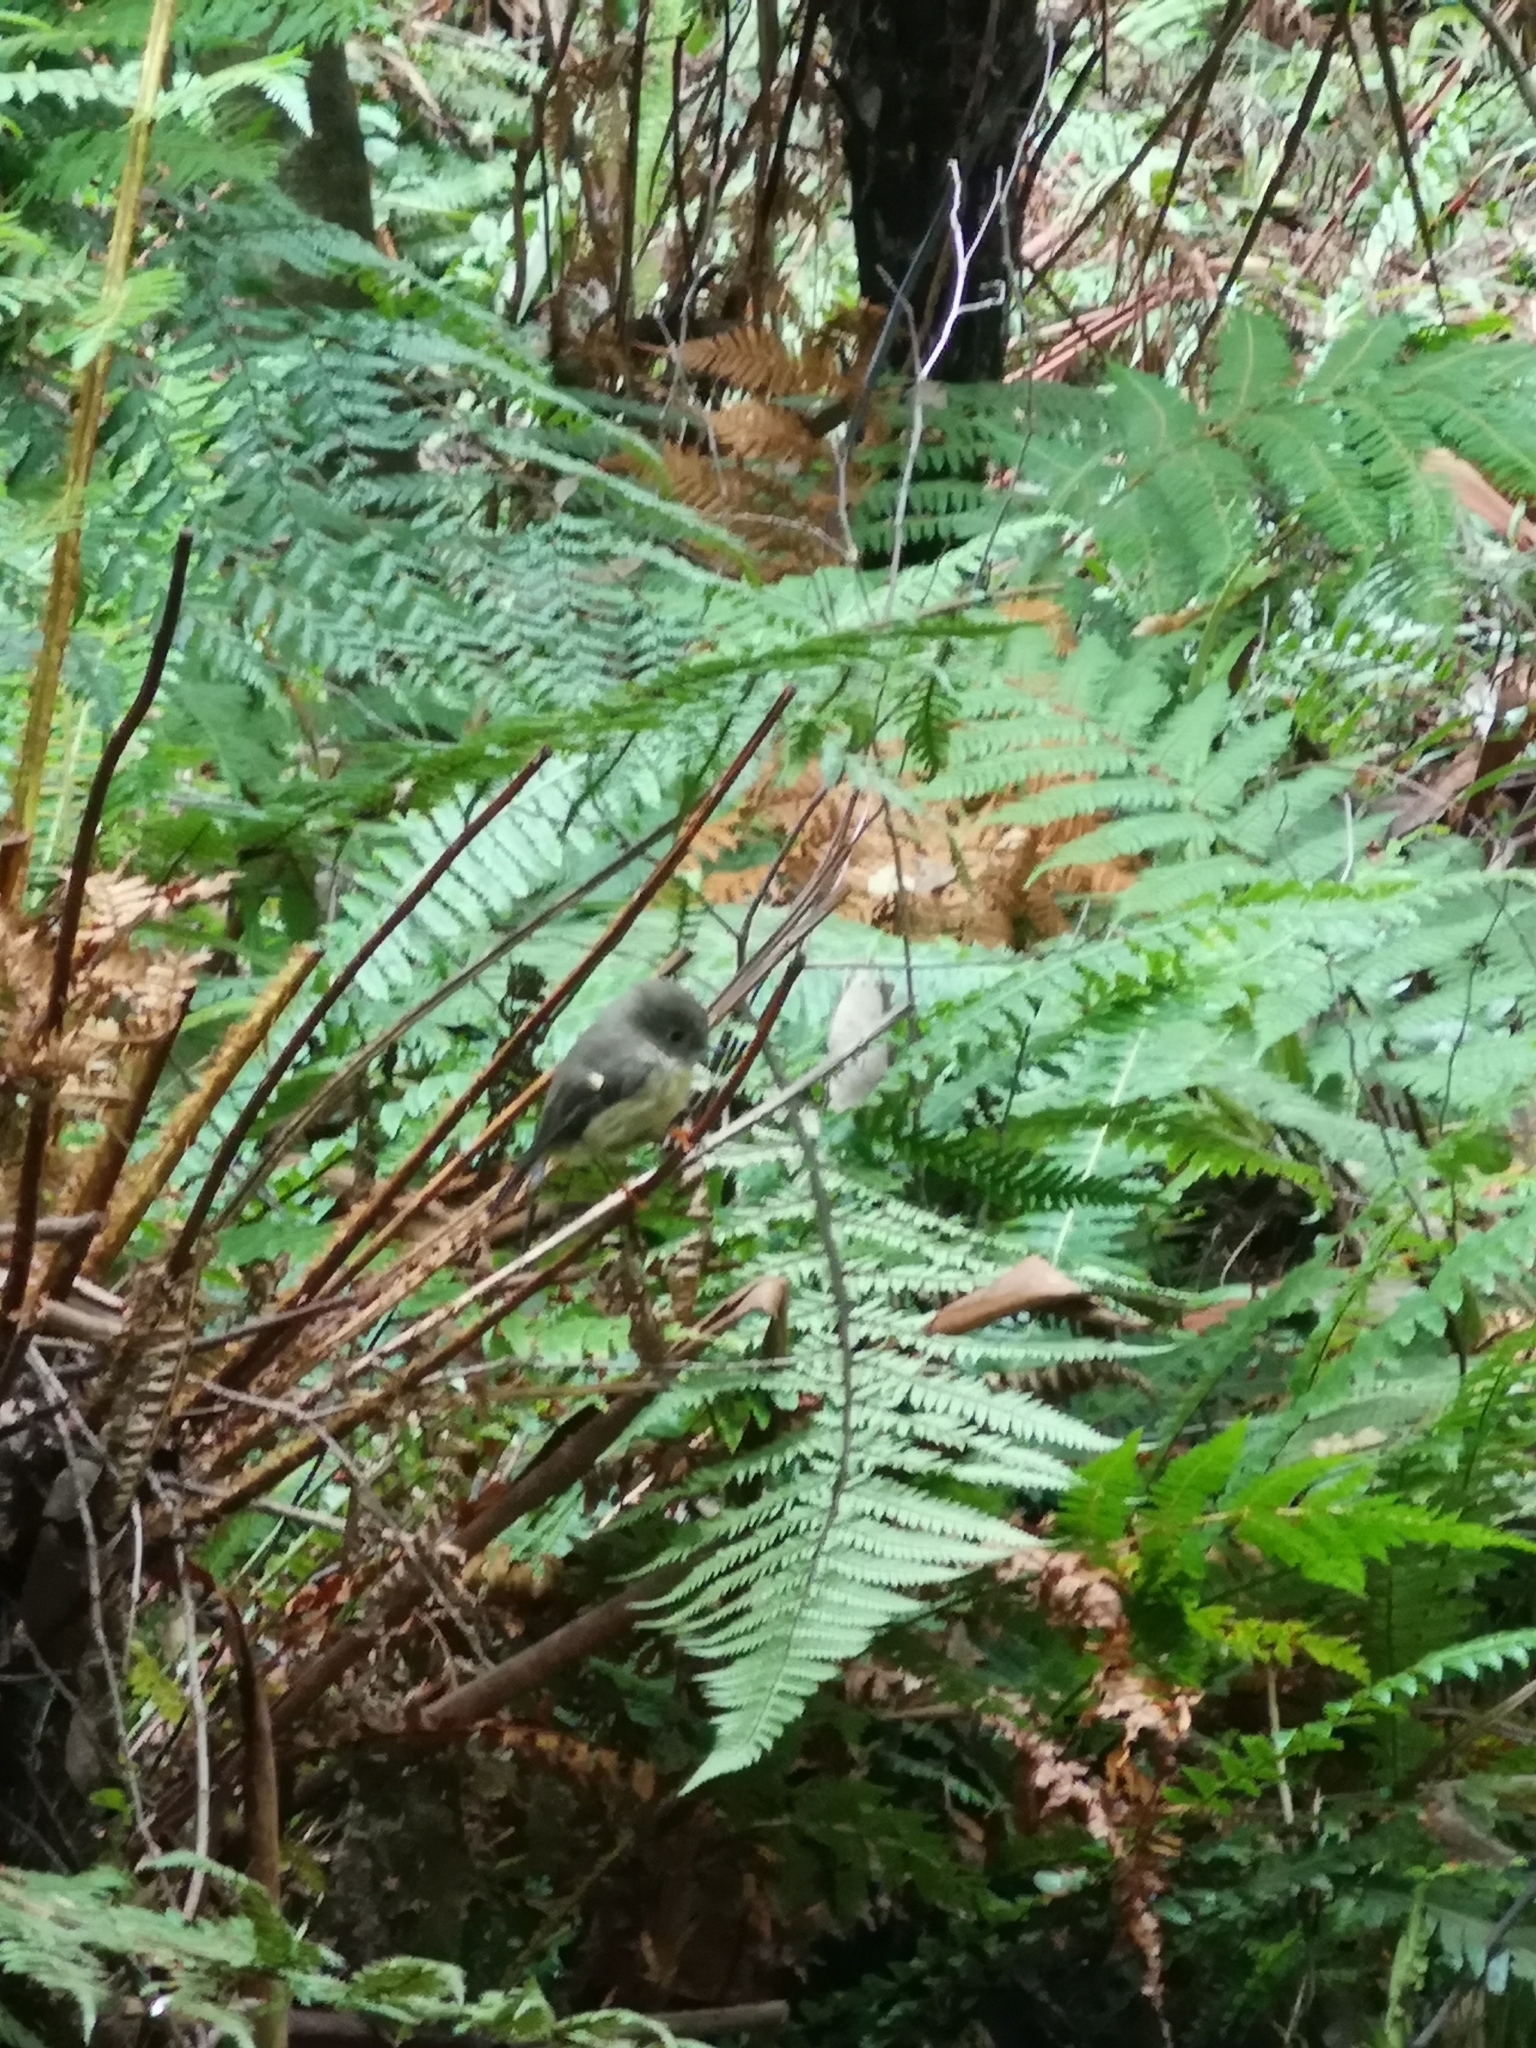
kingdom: Animalia
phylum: Chordata
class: Aves
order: Passeriformes
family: Petroicidae
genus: Petroica
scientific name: Petroica macrocephala
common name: Tomtit
